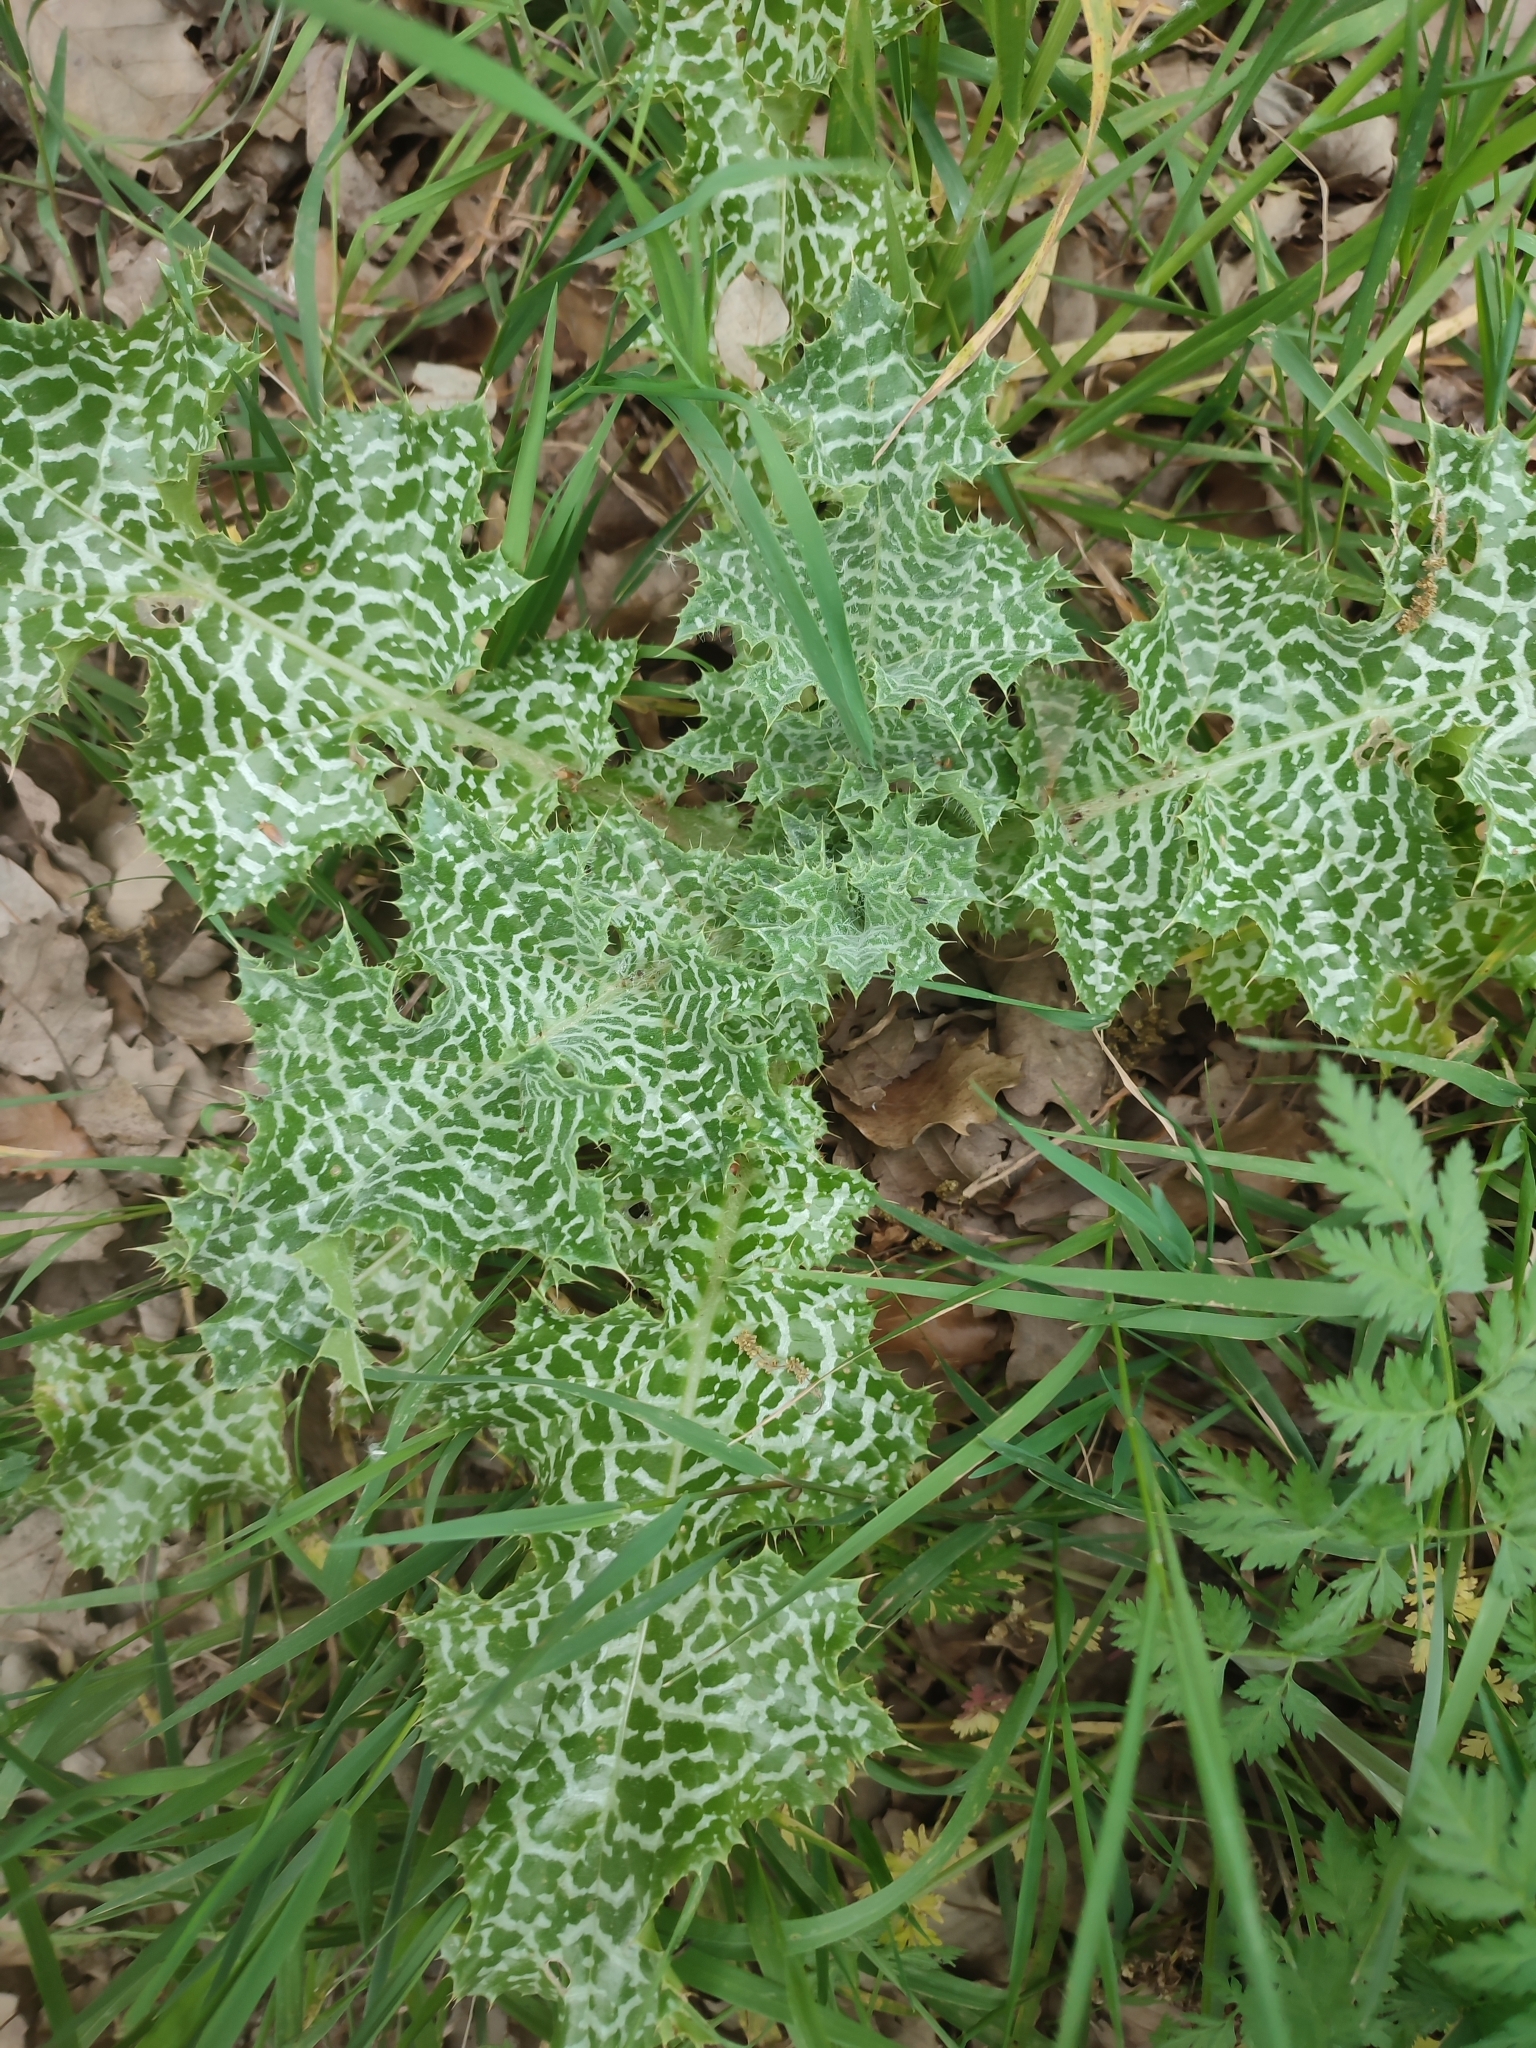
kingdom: Plantae
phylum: Tracheophyta
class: Magnoliopsida
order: Asterales
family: Asteraceae
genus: Silybum
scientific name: Silybum marianum
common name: Milk thistle
